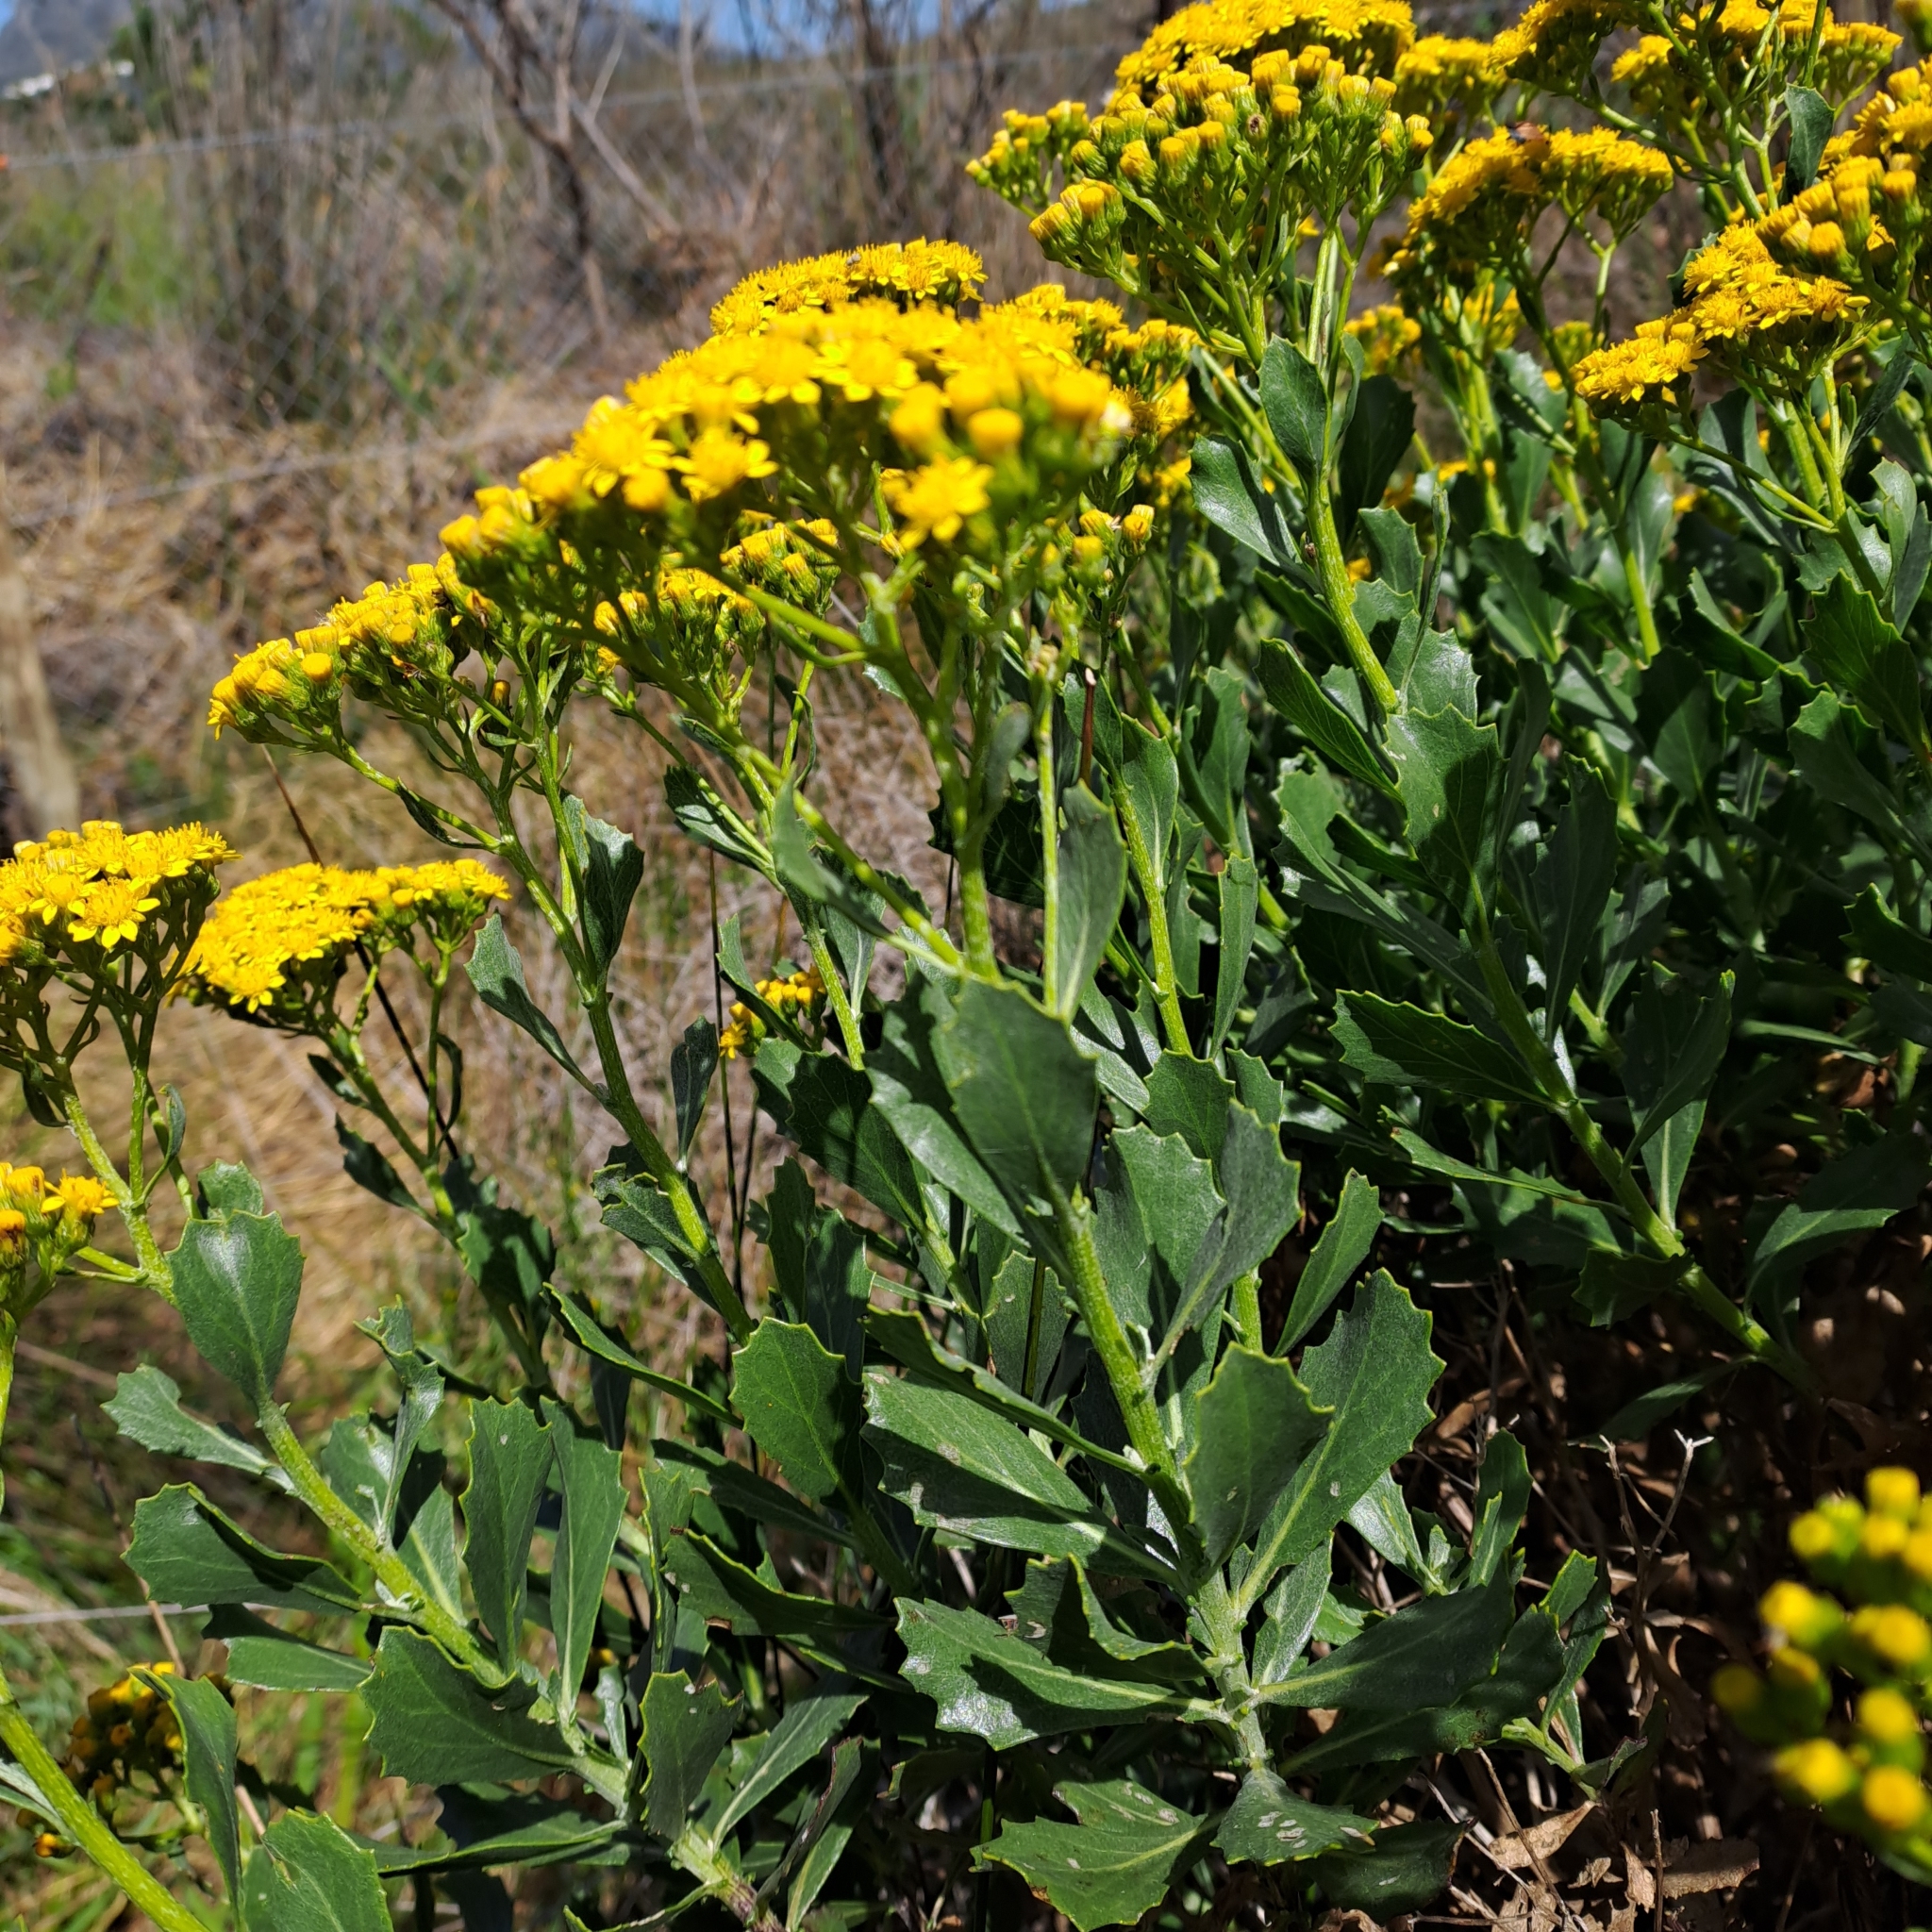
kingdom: Plantae
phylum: Tracheophyta
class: Magnoliopsida
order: Asterales
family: Asteraceae
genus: Senecio
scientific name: Senecio halimifolius
